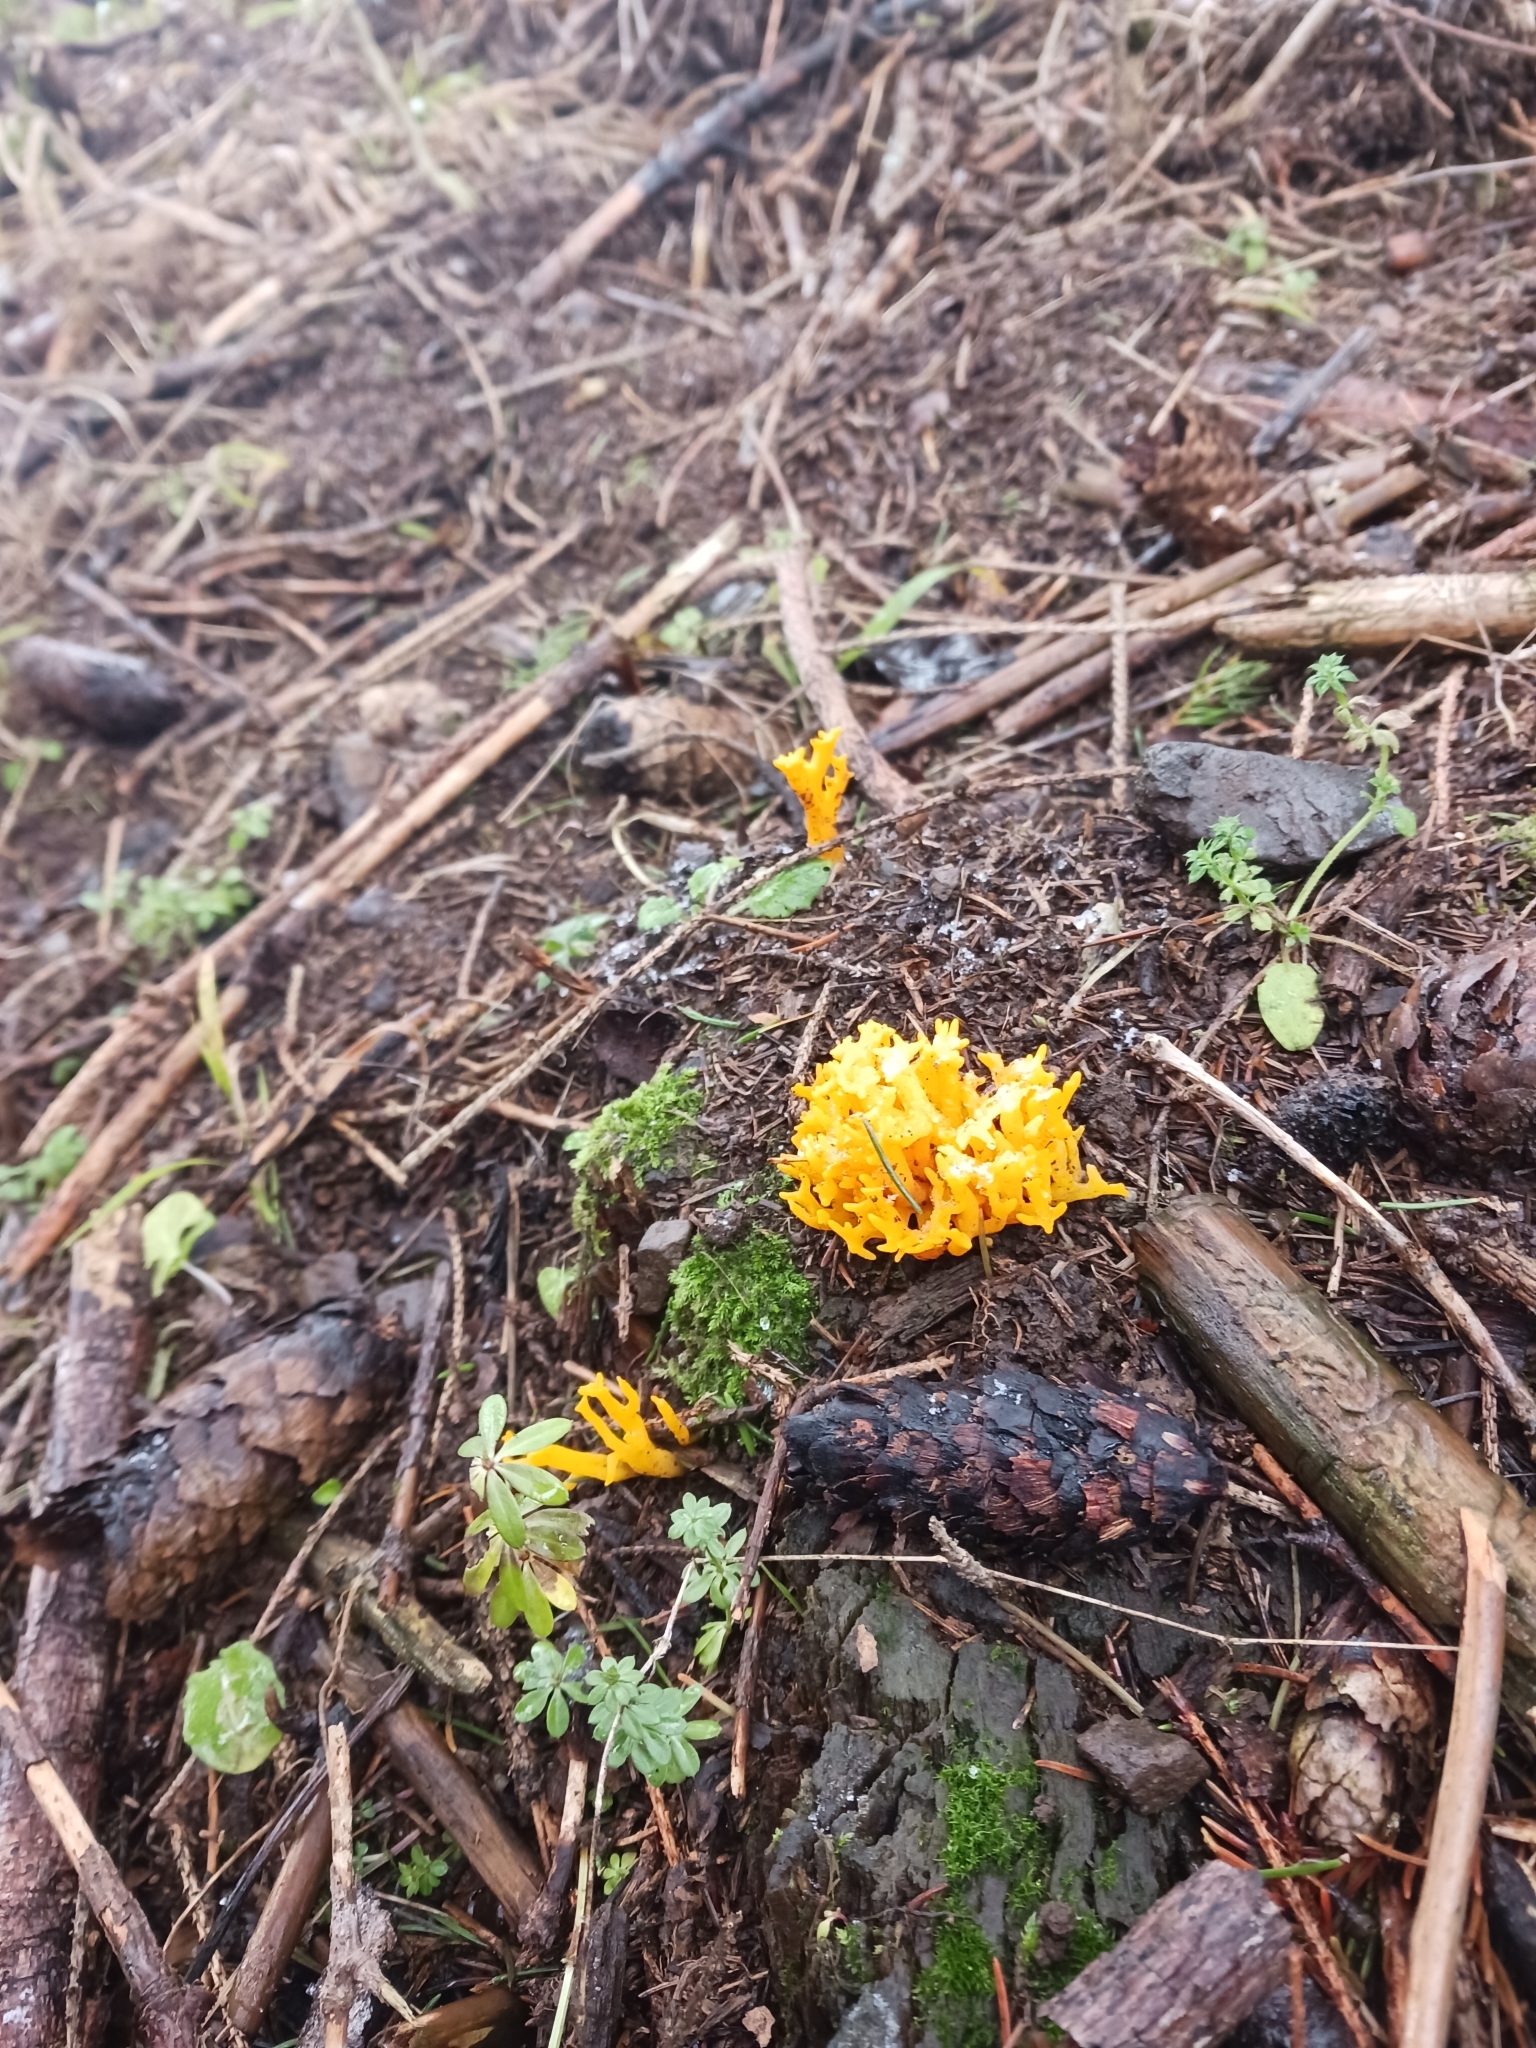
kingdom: Fungi
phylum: Basidiomycota
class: Dacrymycetes
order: Dacrymycetales
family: Dacrymycetaceae
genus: Calocera
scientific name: Calocera viscosa
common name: Yellow stagshorn
